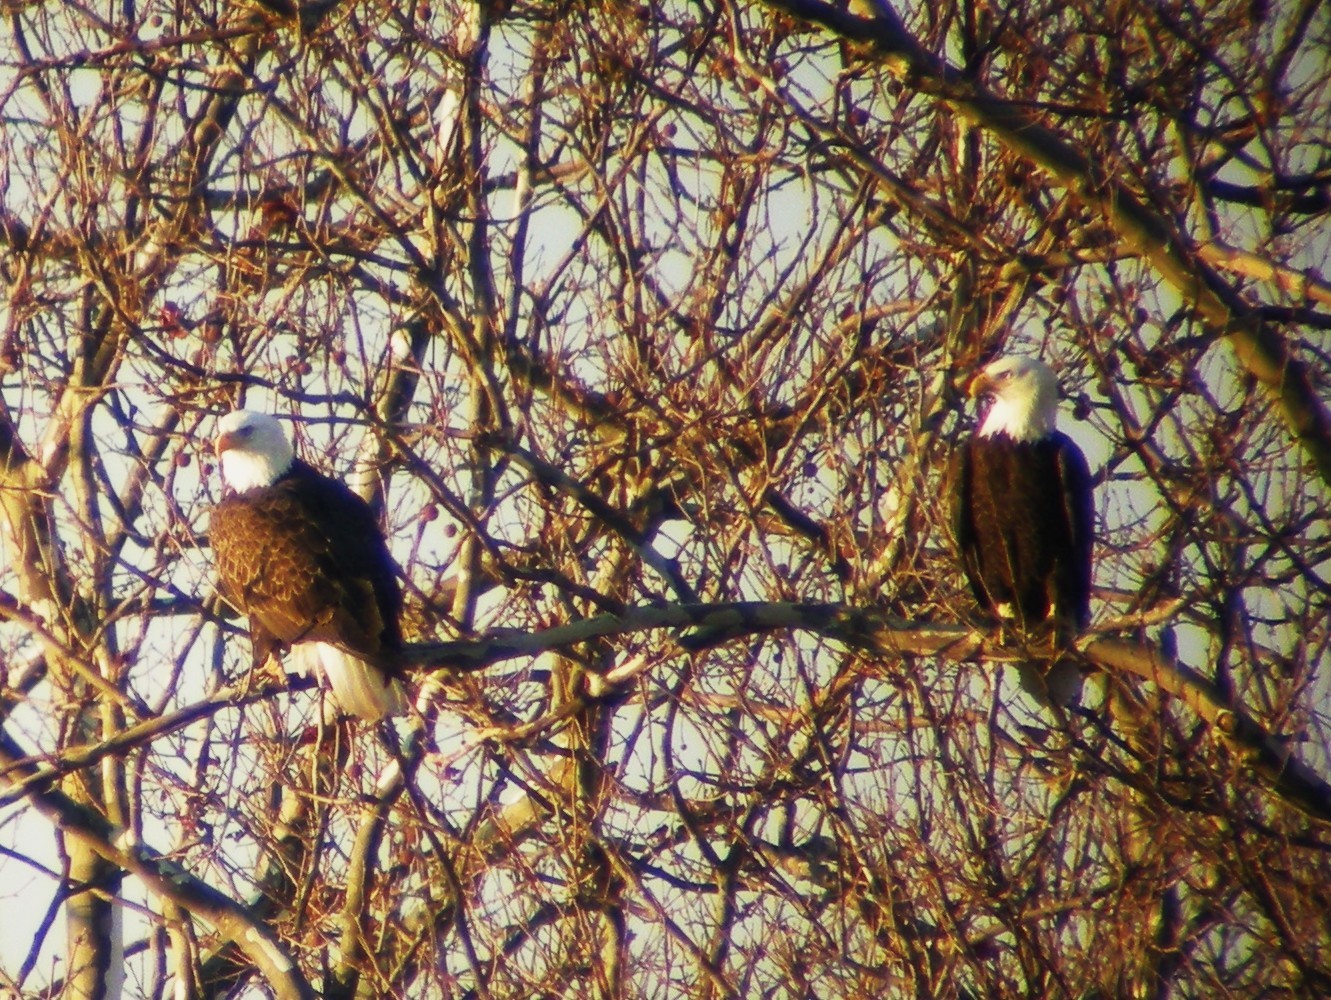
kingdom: Animalia
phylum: Chordata
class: Aves
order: Accipitriformes
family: Accipitridae
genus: Haliaeetus
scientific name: Haliaeetus leucocephalus
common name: Bald eagle
